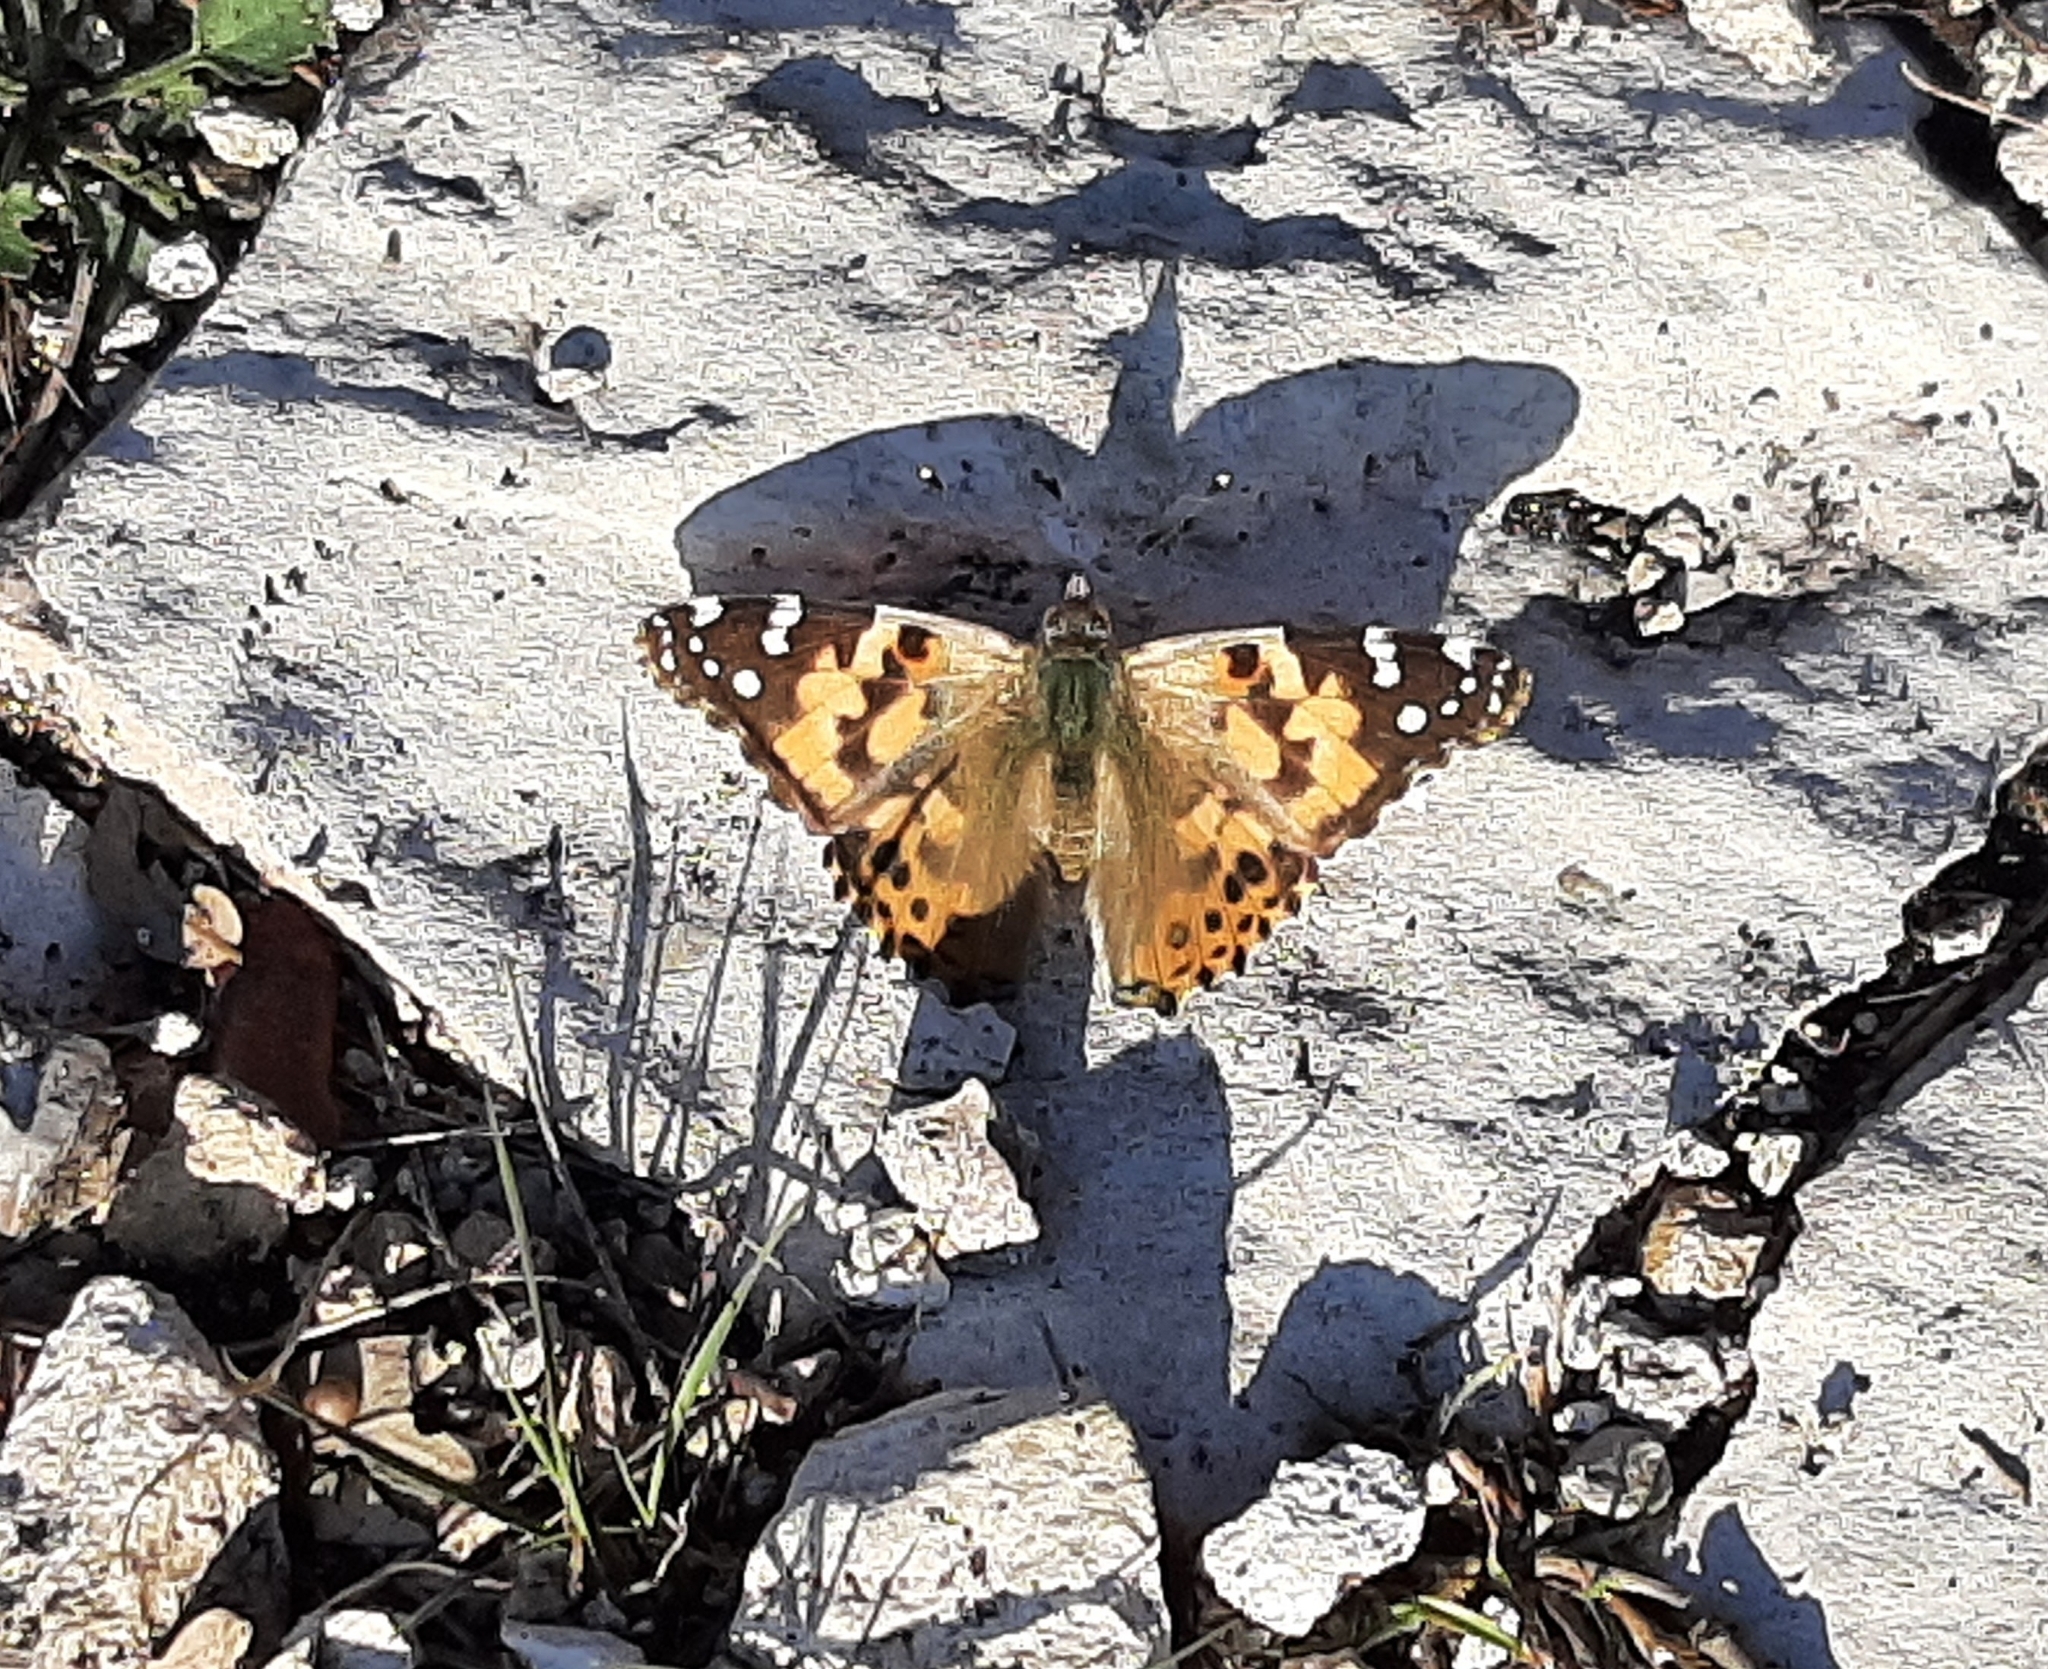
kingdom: Animalia
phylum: Arthropoda
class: Insecta
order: Lepidoptera
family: Nymphalidae
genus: Vanessa
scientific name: Vanessa cardui
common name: Painted lady
